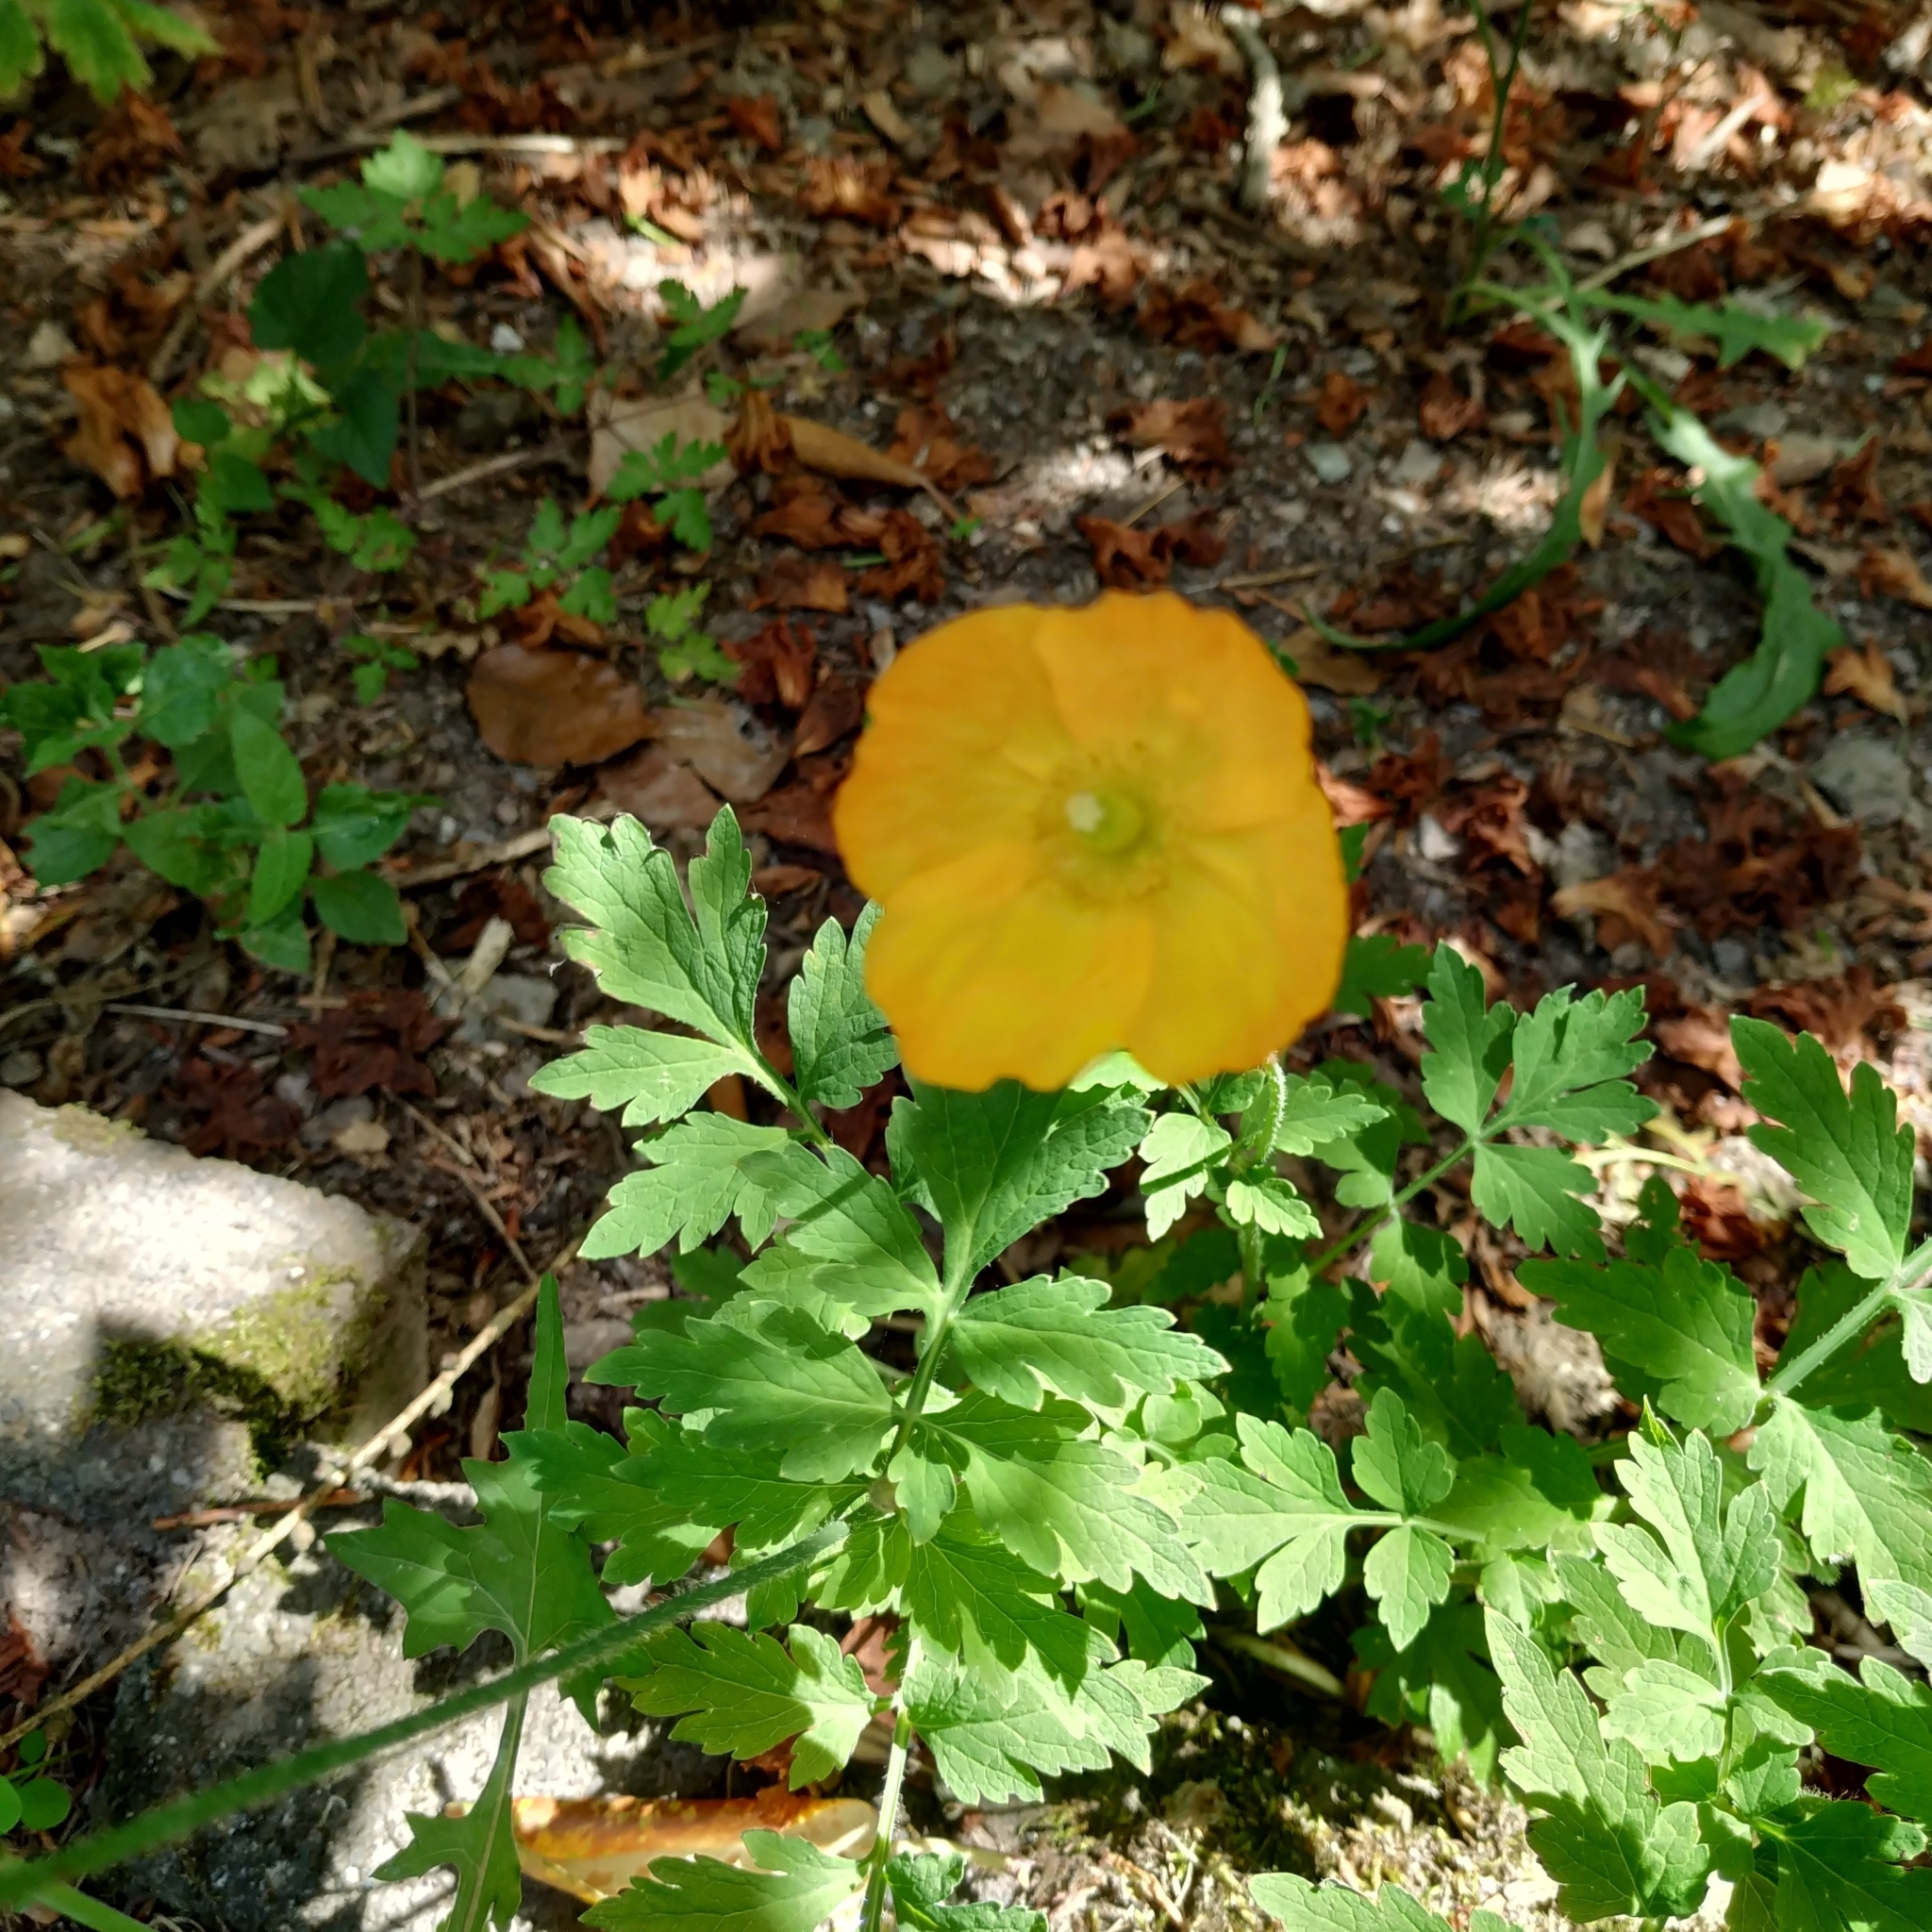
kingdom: Plantae
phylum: Tracheophyta
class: Magnoliopsida
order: Ranunculales
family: Papaveraceae
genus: Papaver
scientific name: Papaver cambricum
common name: Poppy
